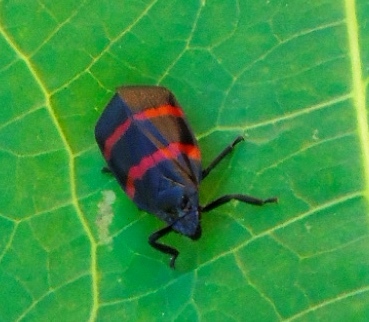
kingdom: Animalia
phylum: Arthropoda
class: Insecta
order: Hemiptera
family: Cercopidae
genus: Huaina
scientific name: Huaina inca
